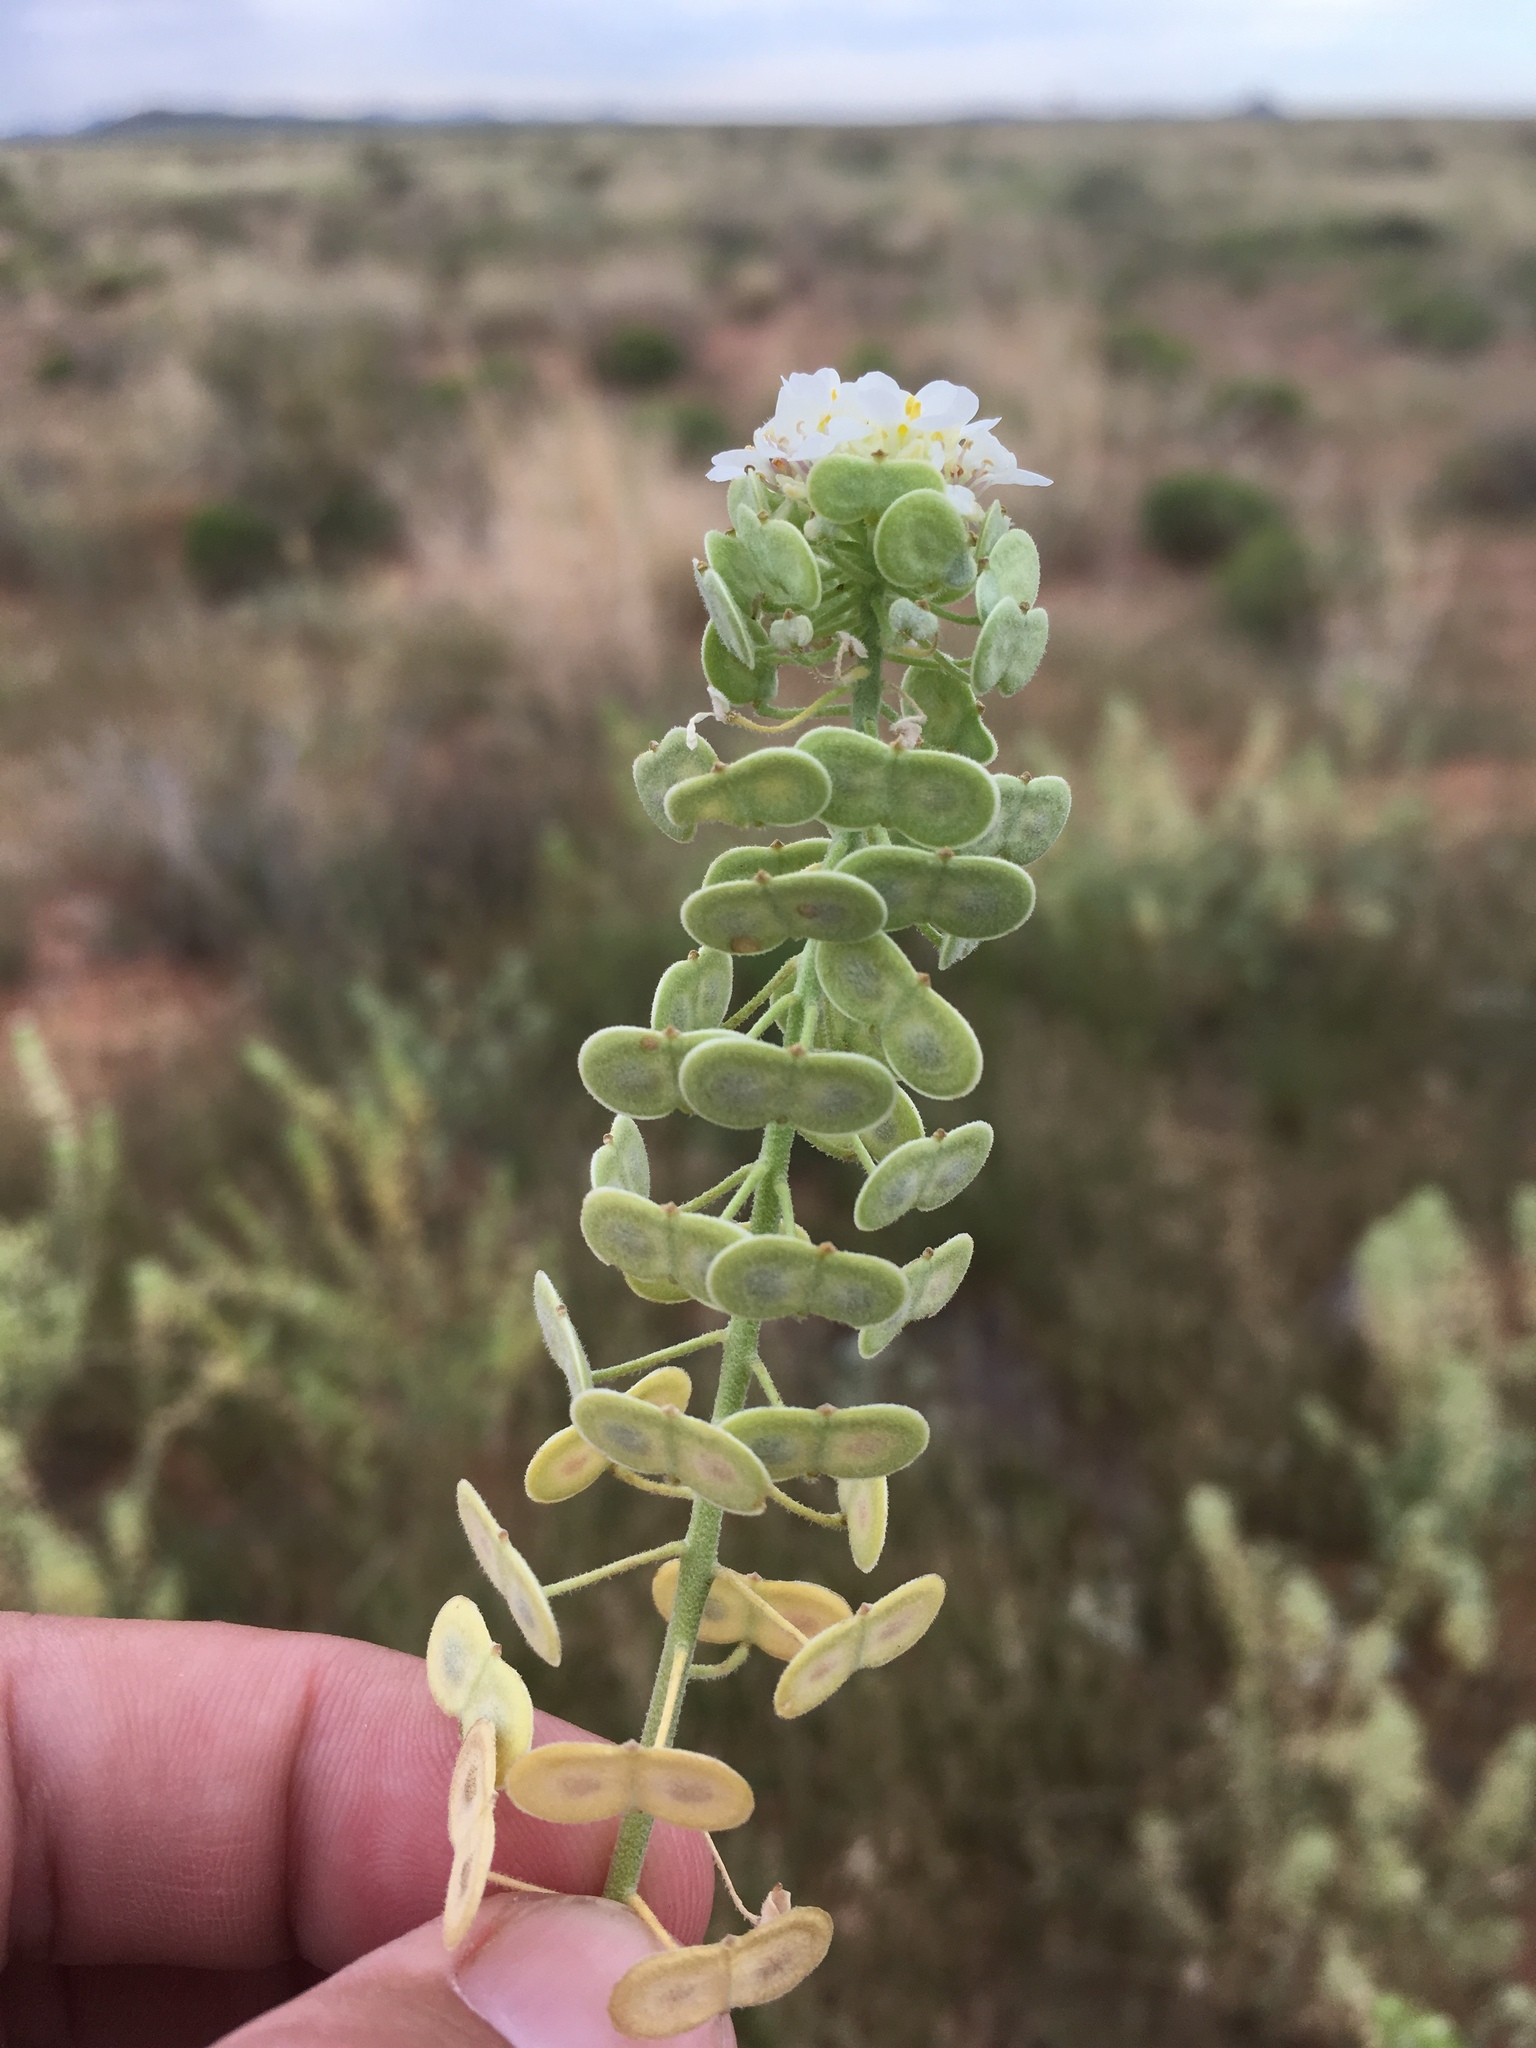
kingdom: Plantae
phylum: Tracheophyta
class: Magnoliopsida
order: Brassicales
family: Brassicaceae
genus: Dimorphocarpa
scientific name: Dimorphocarpa wislizenii
